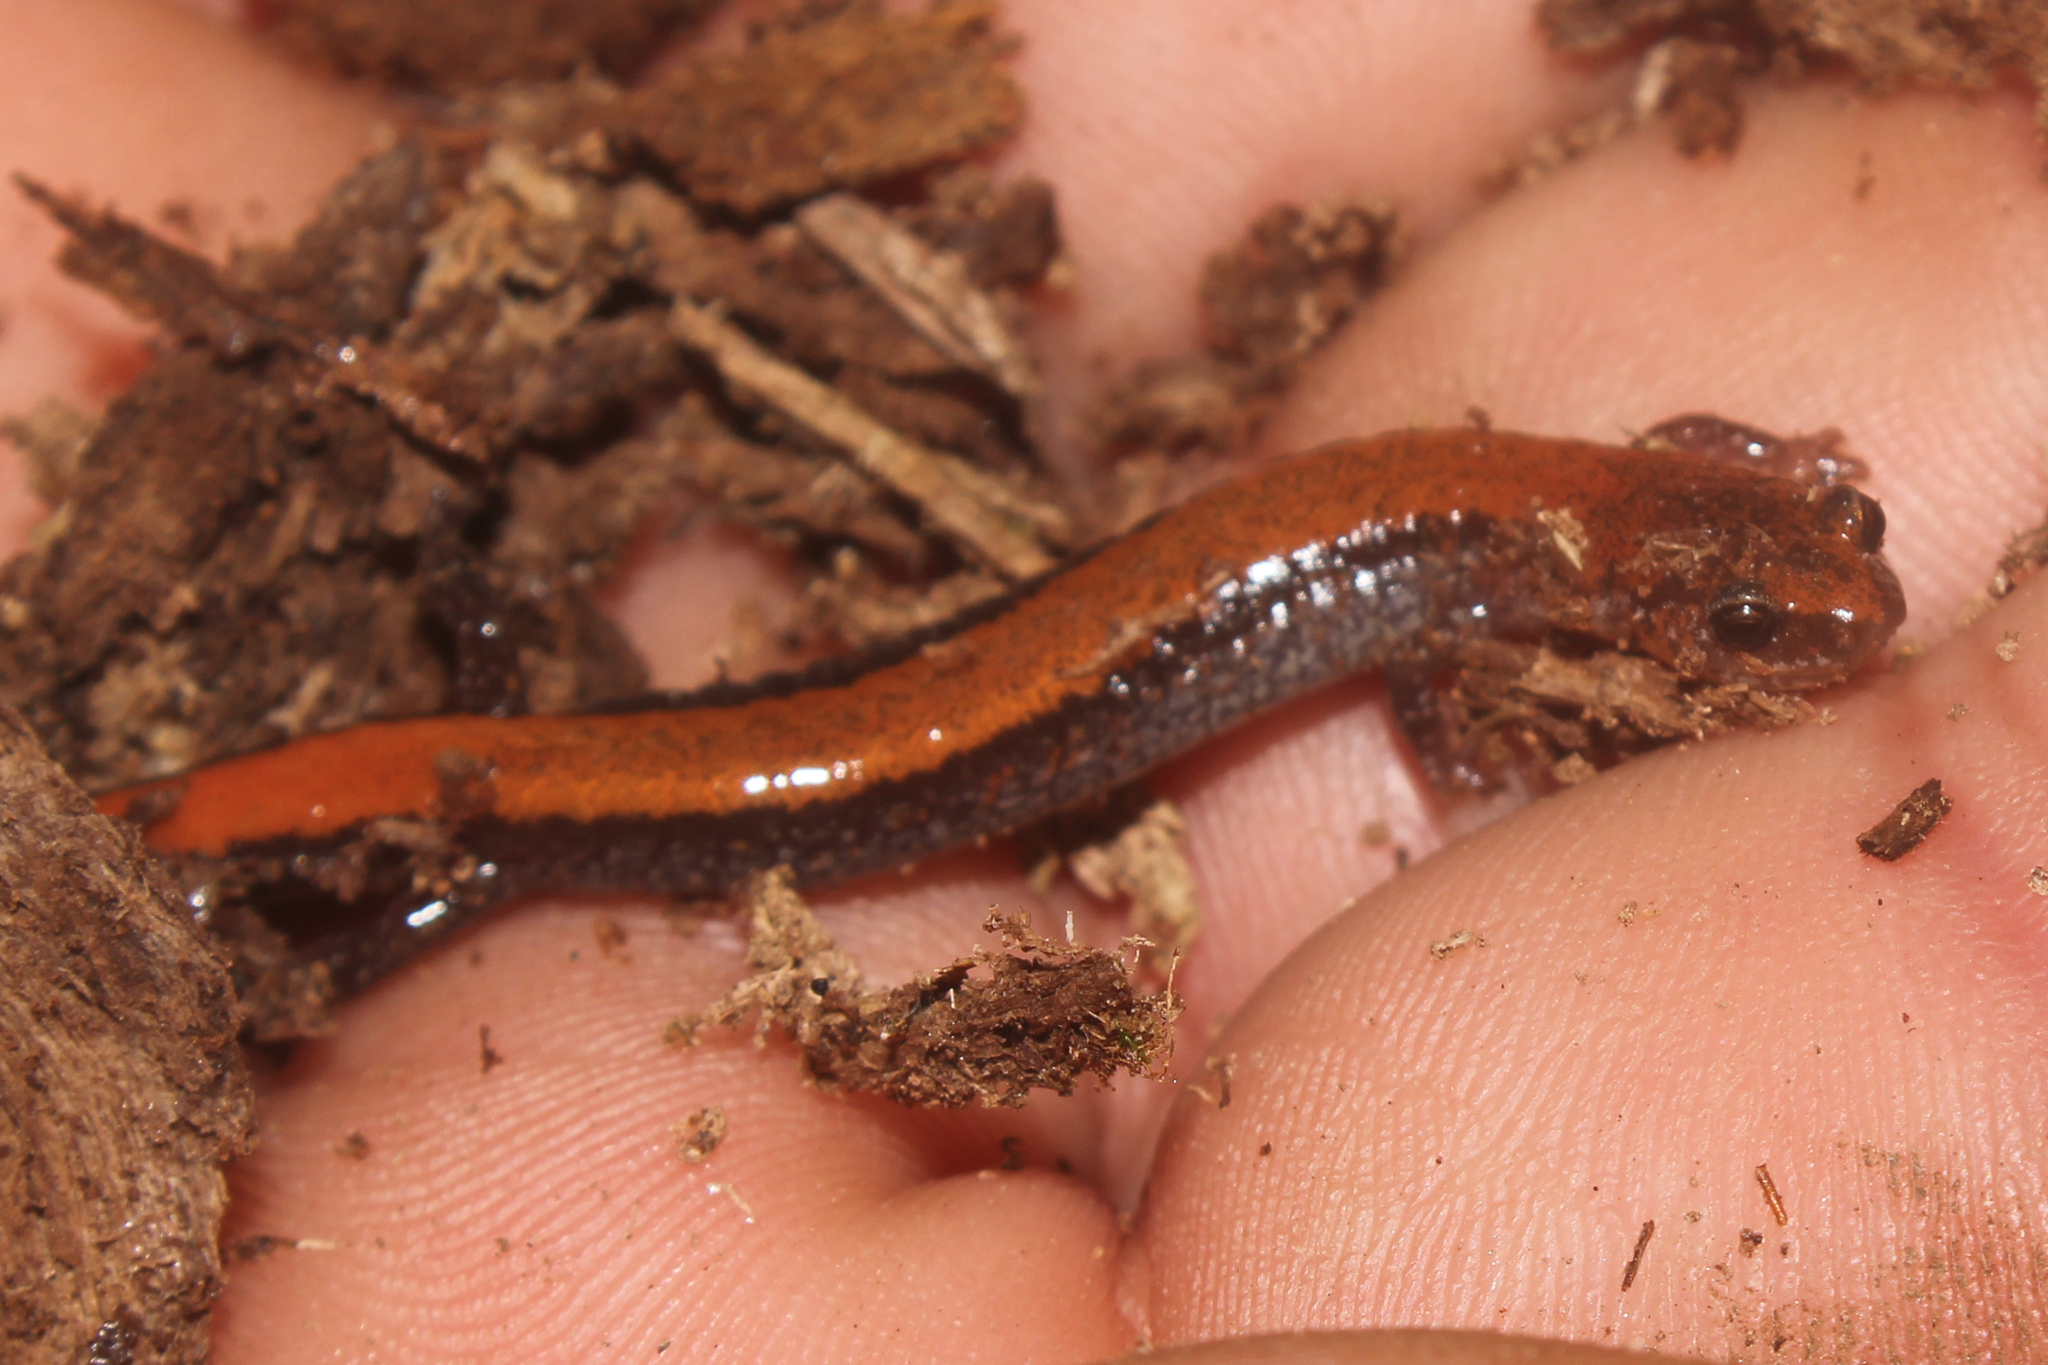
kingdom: Animalia
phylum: Chordata
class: Amphibia
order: Caudata
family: Plethodontidae
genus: Plethodon
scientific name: Plethodon cinereus
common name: Redback salamander
